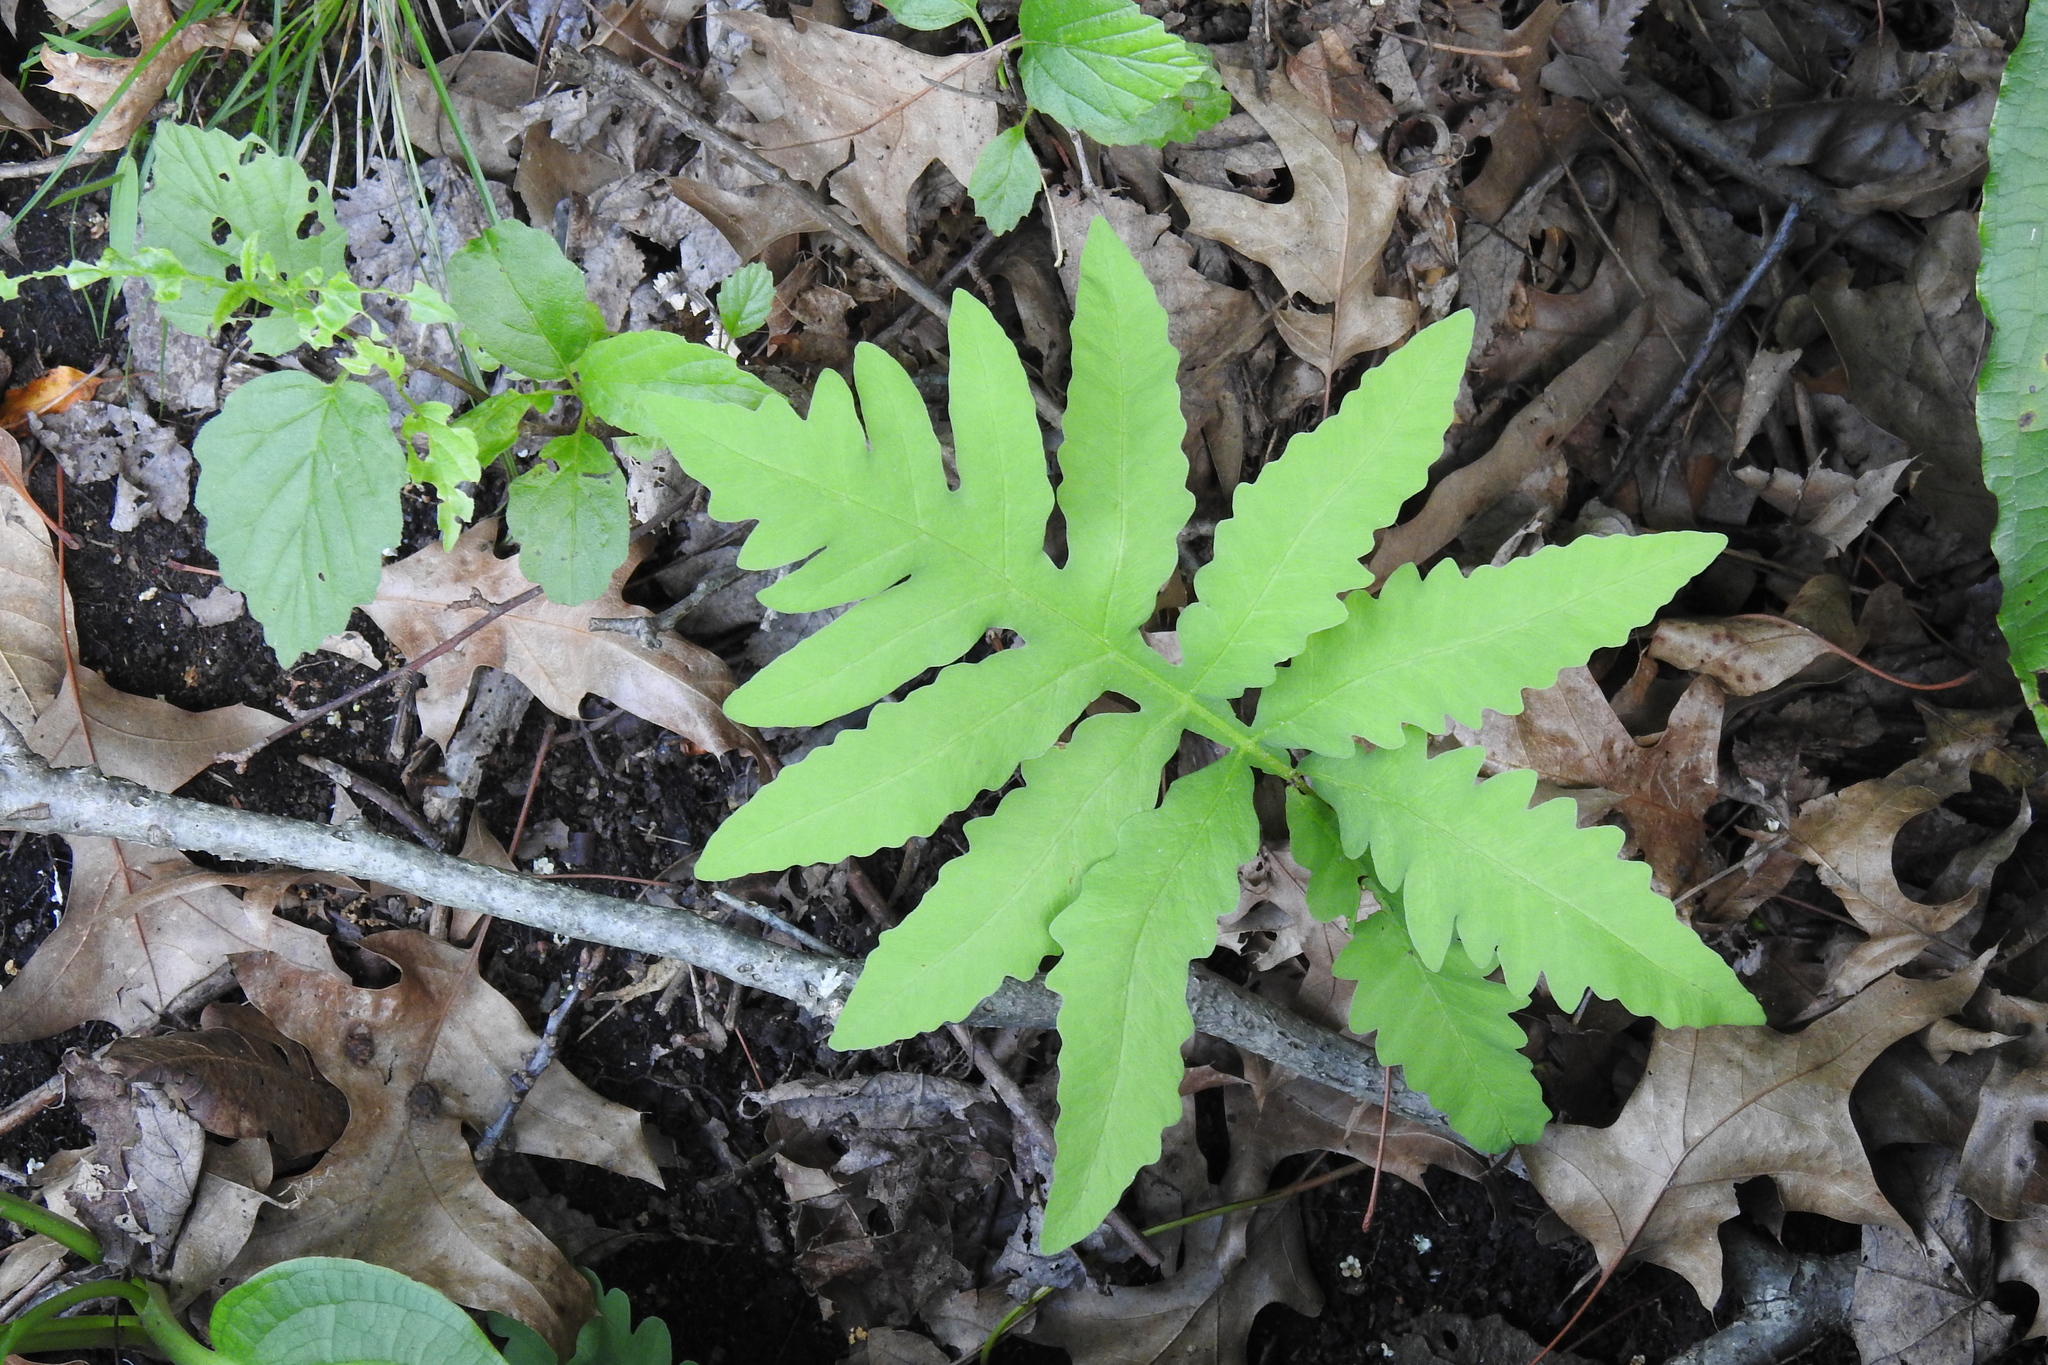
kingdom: Plantae
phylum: Tracheophyta
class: Polypodiopsida
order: Polypodiales
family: Onocleaceae
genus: Onoclea
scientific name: Onoclea sensibilis
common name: Sensitive fern
